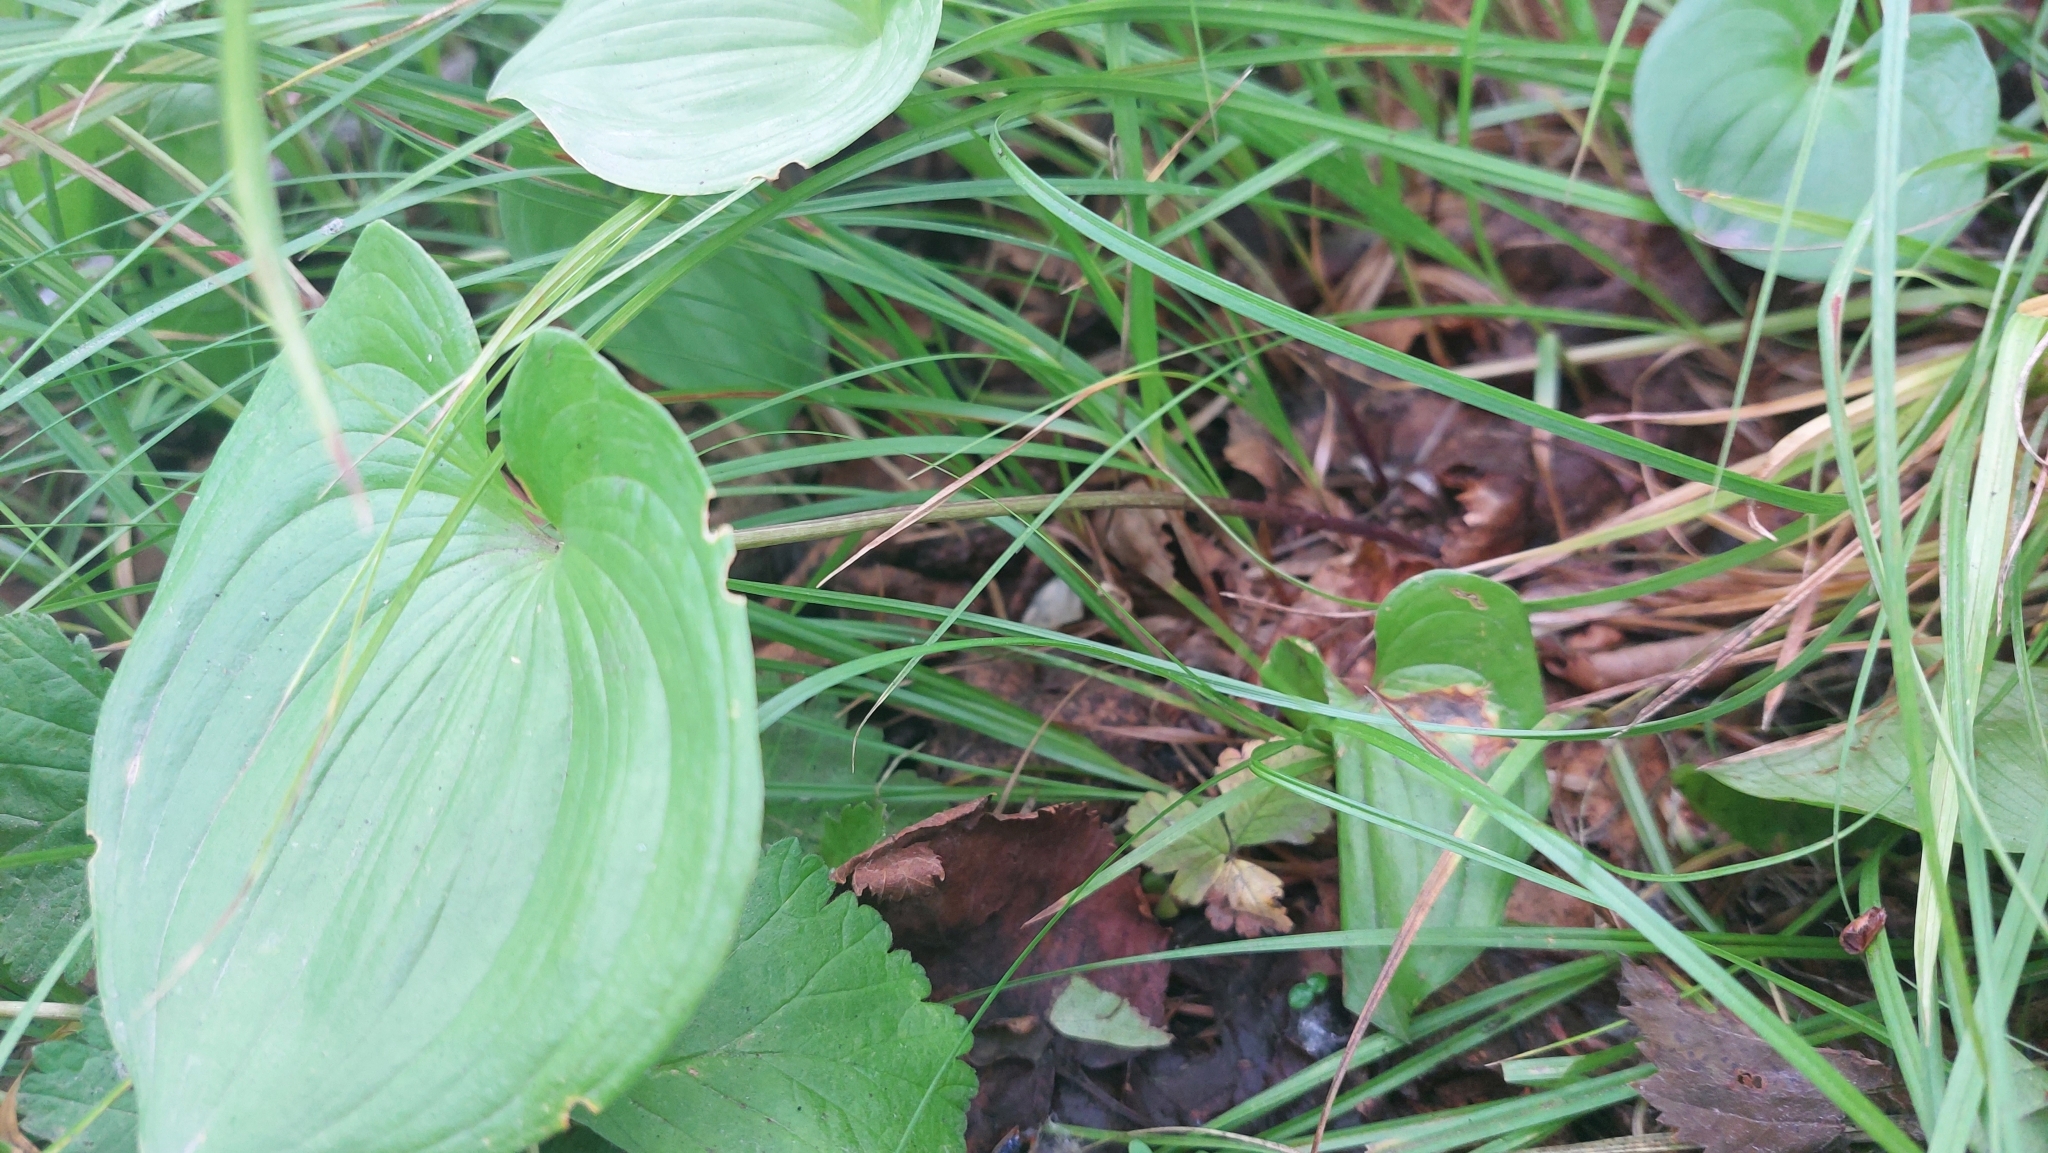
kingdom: Plantae
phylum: Tracheophyta
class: Liliopsida
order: Asparagales
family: Asparagaceae
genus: Maianthemum
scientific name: Maianthemum dilatatum
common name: False lily-of-the-valley
